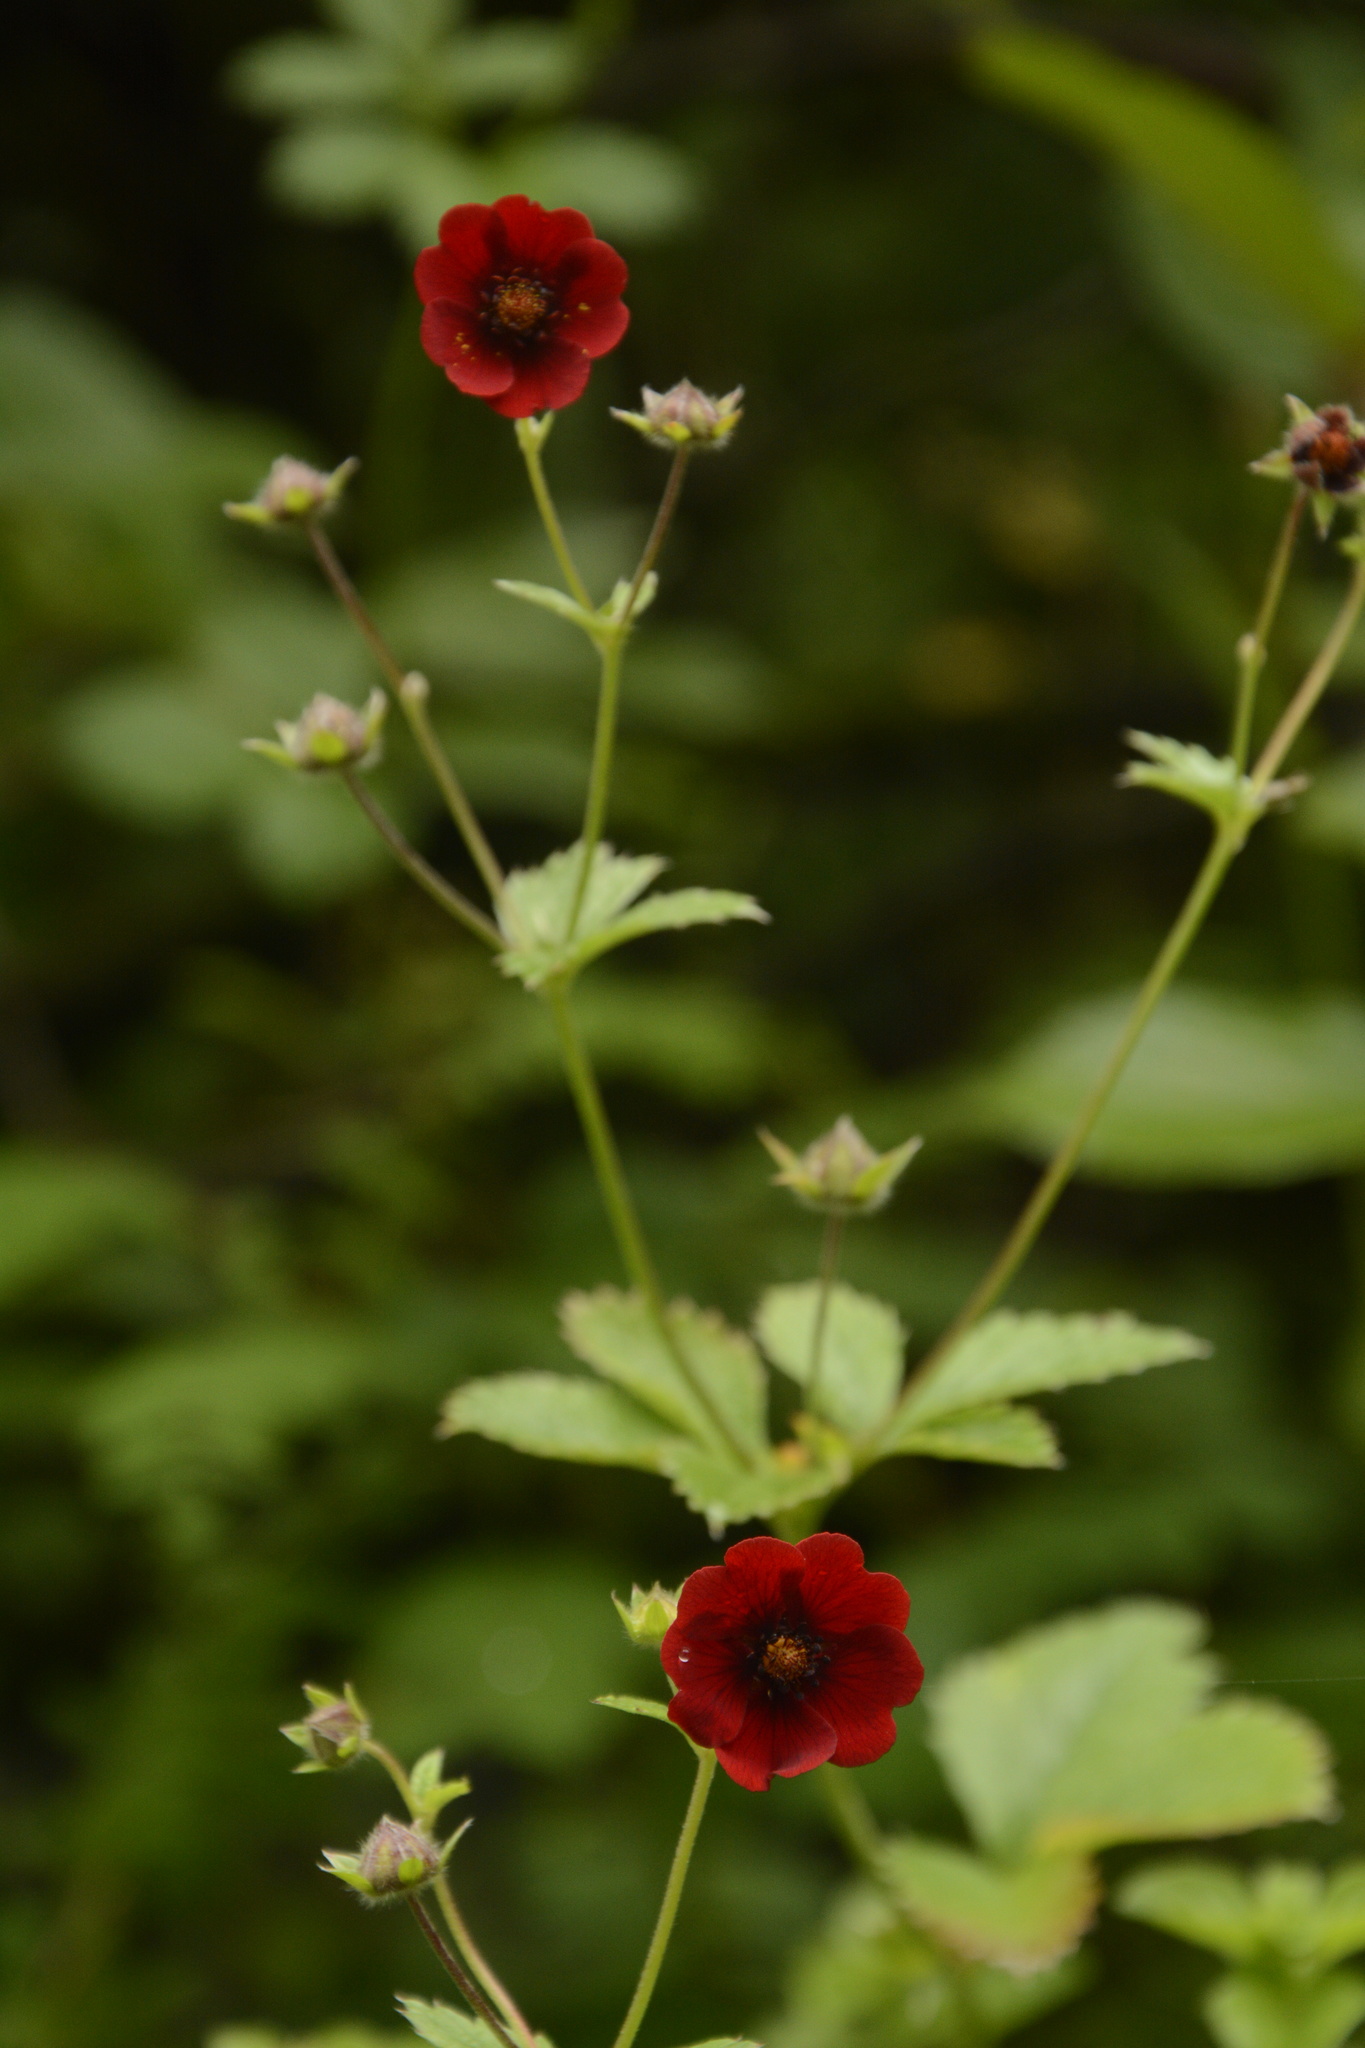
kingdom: Plantae
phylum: Tracheophyta
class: Magnoliopsida
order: Rosales
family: Rosaceae
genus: Potentilla
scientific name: Potentilla argyrophylla
